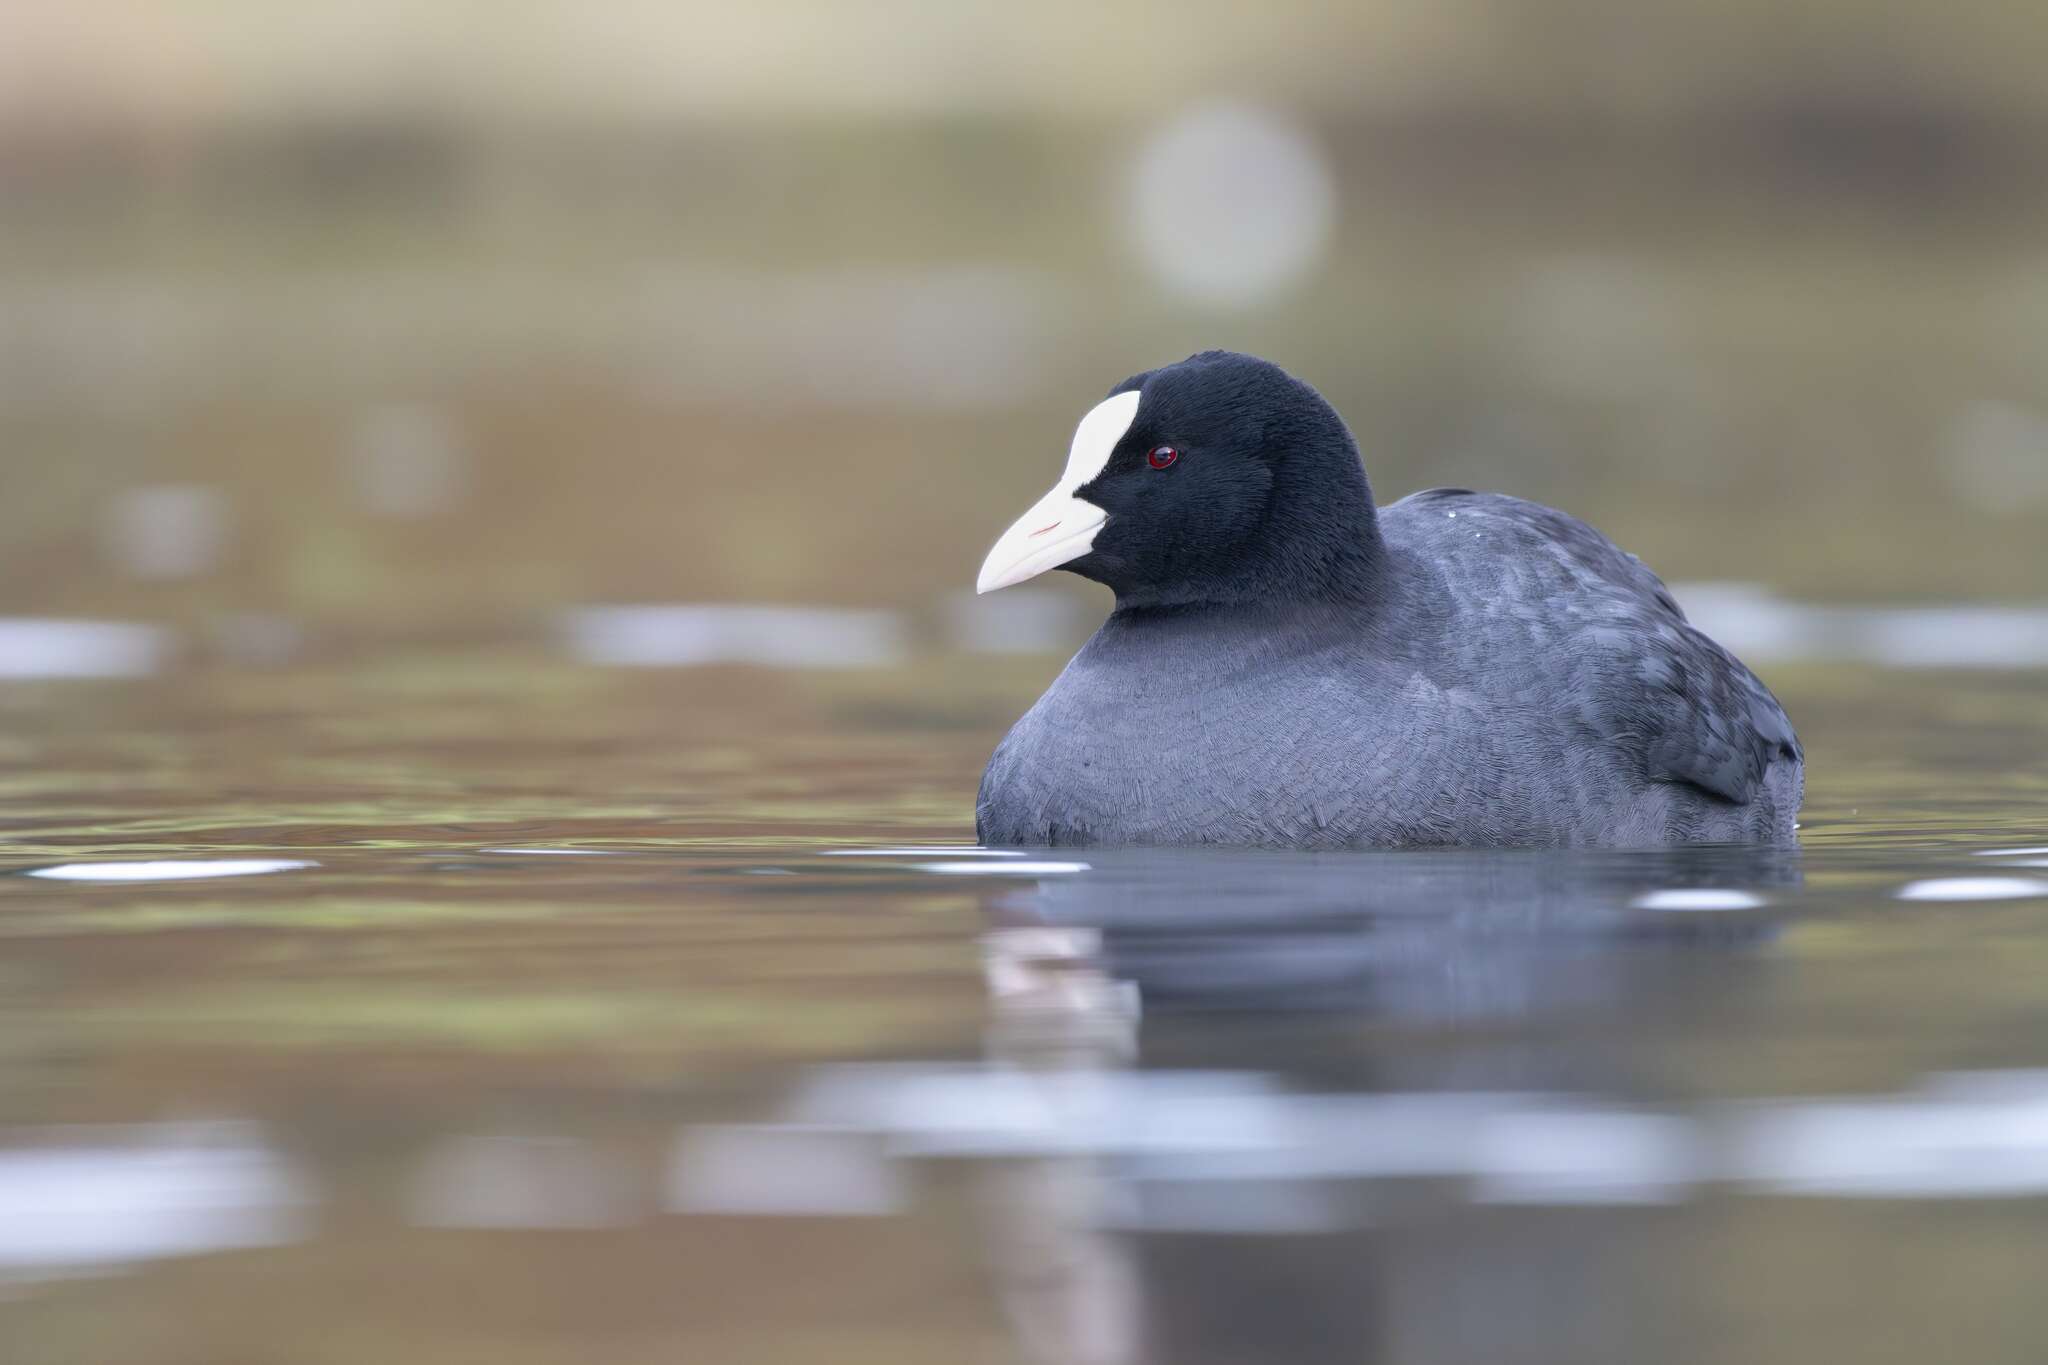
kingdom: Animalia
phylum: Chordata
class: Aves
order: Gruiformes
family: Rallidae
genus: Fulica
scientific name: Fulica atra
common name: Eurasian coot
